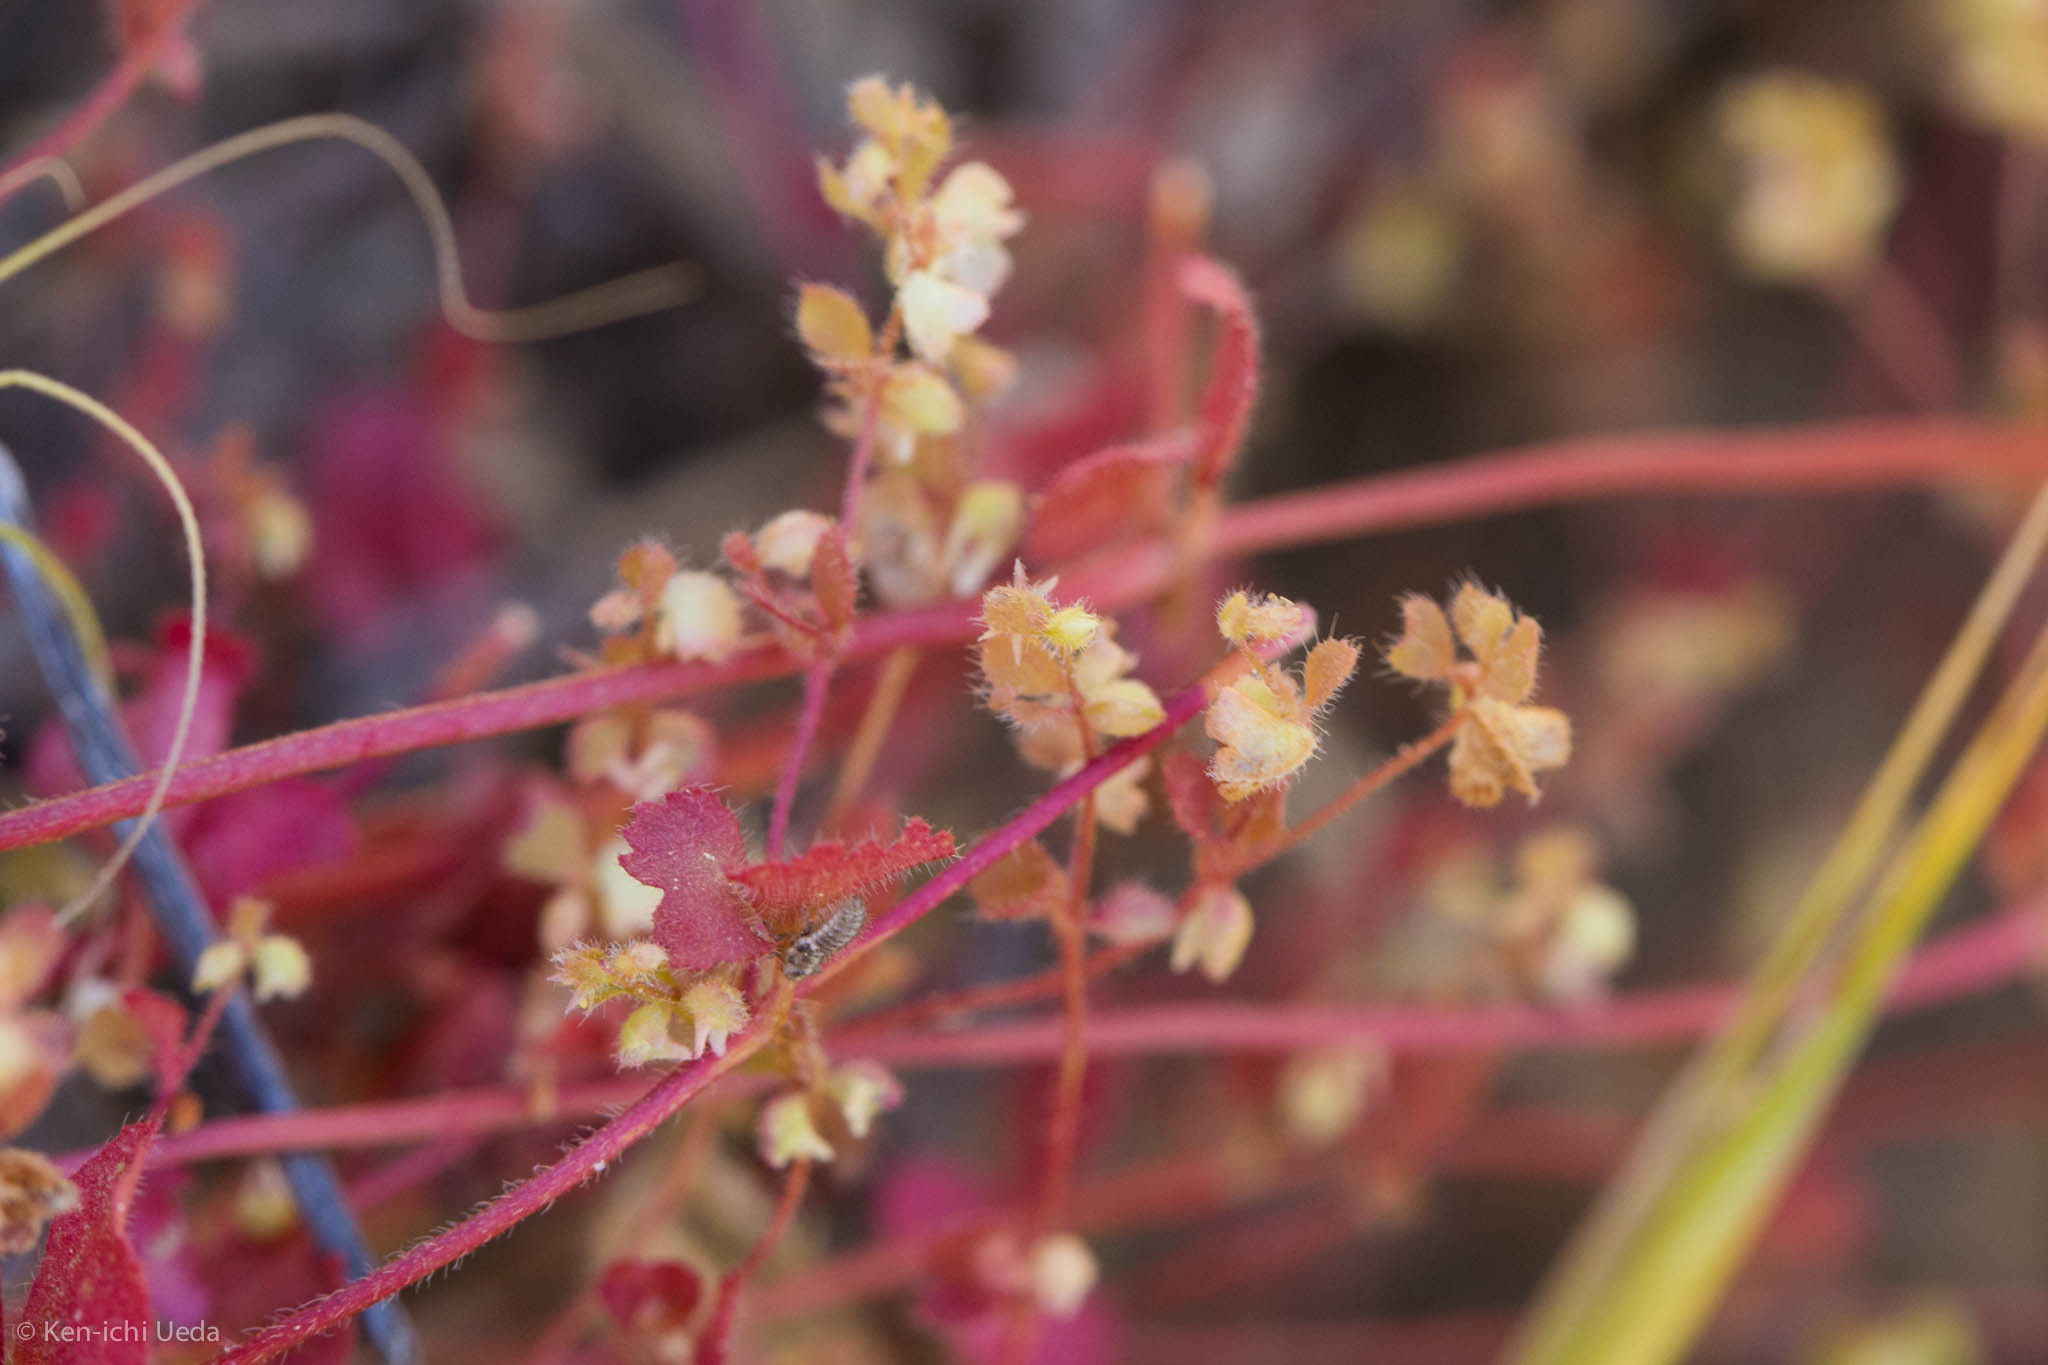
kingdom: Plantae
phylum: Tracheophyta
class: Magnoliopsida
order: Caryophyllales
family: Polygonaceae
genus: Pterostegia
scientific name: Pterostegia drymarioides
